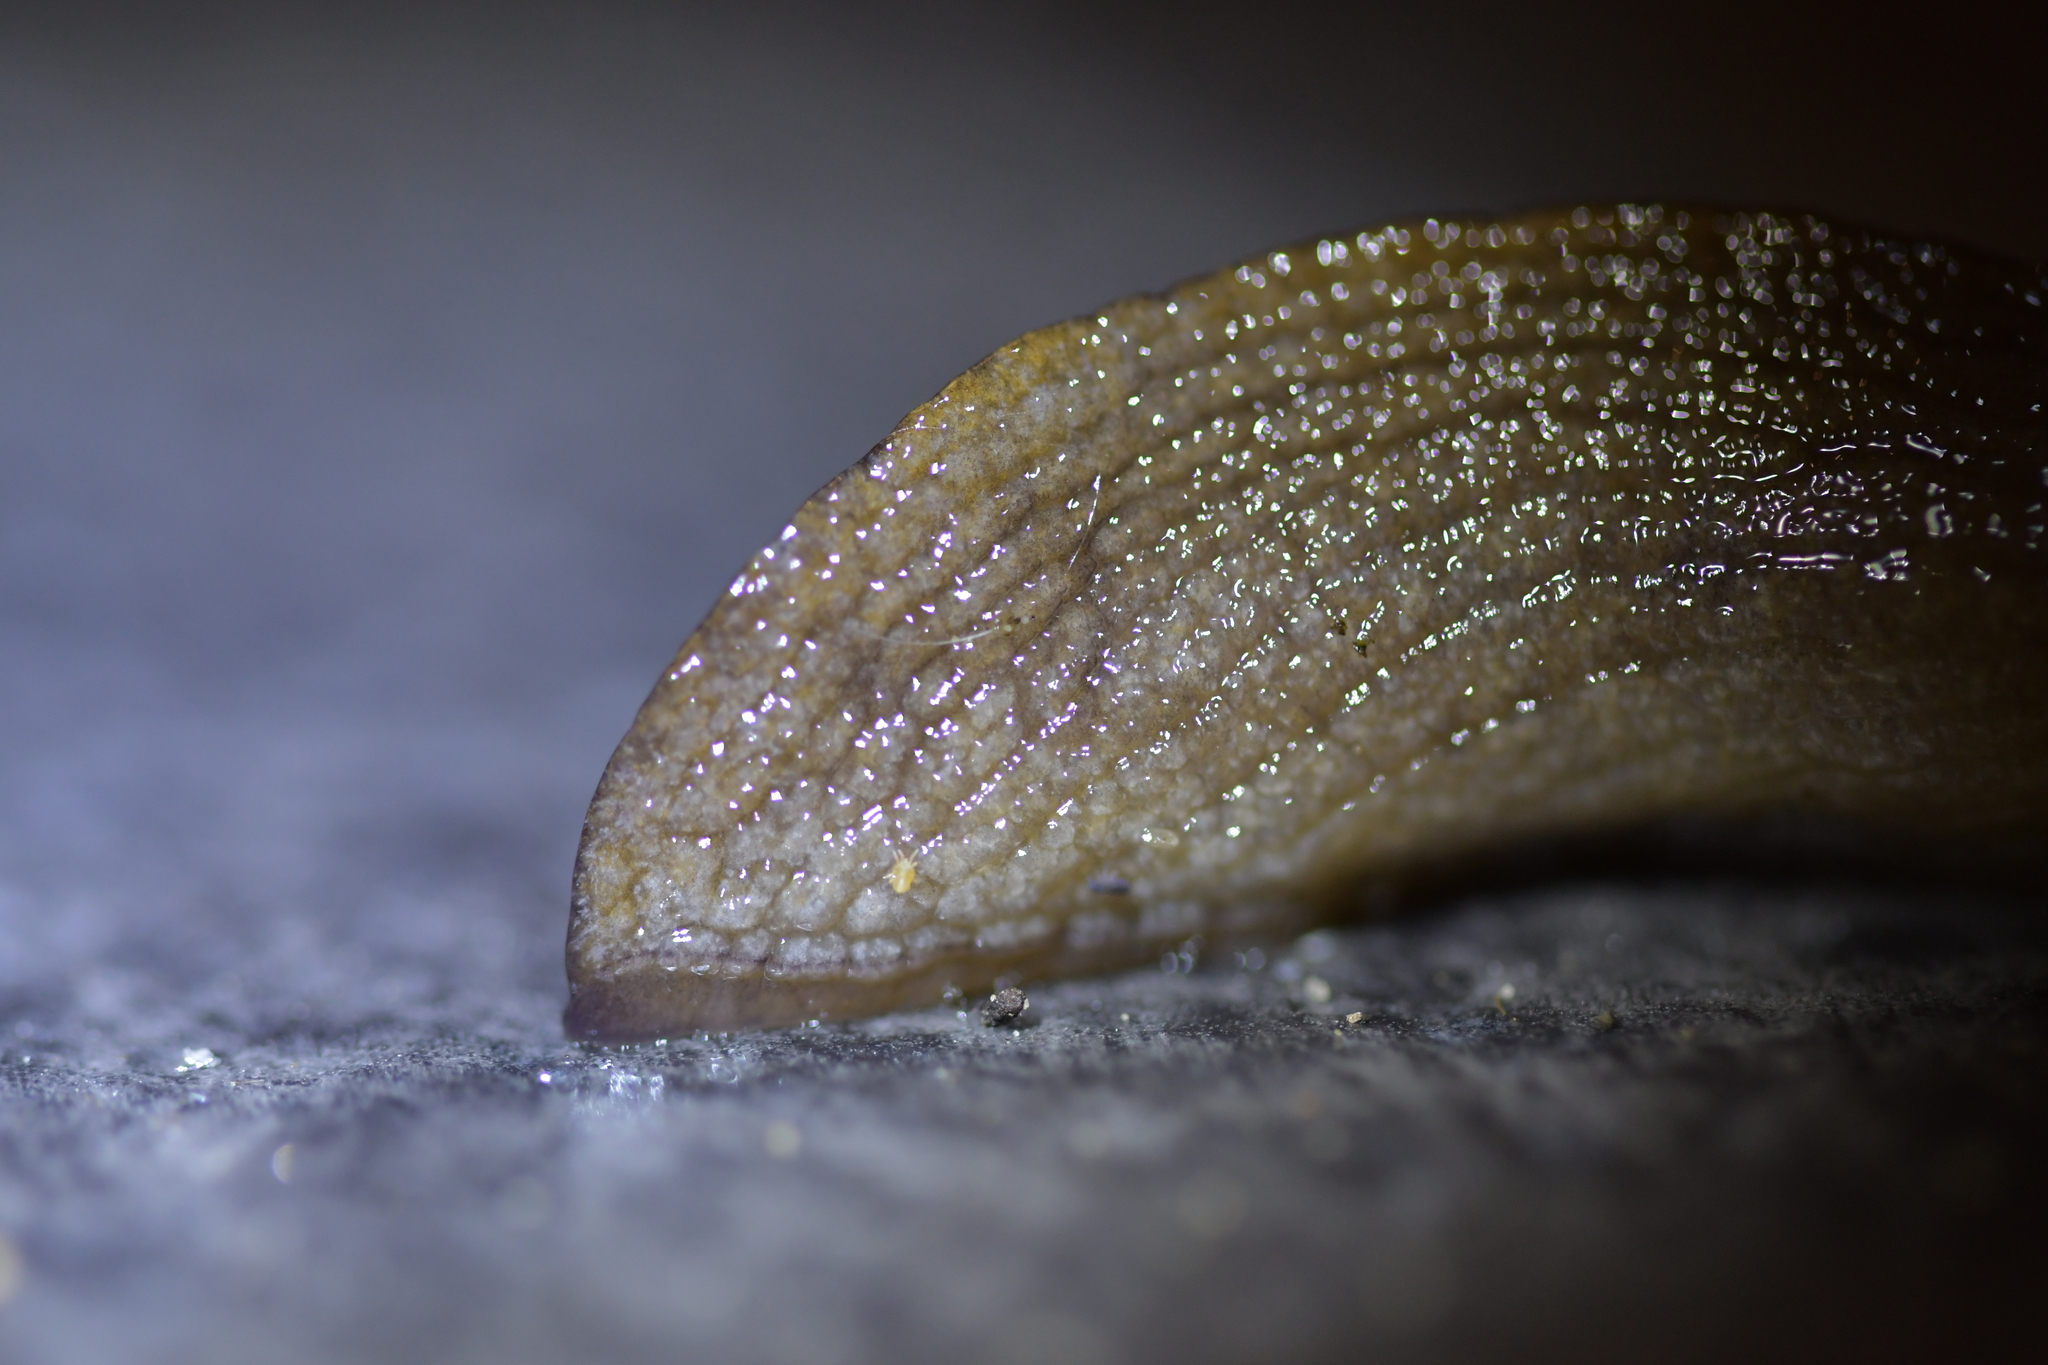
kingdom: Animalia
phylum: Arthropoda
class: Arachnida
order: Trombidiformes
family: Ereynetidae
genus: Riccardoella
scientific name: Riccardoella oudemansi
